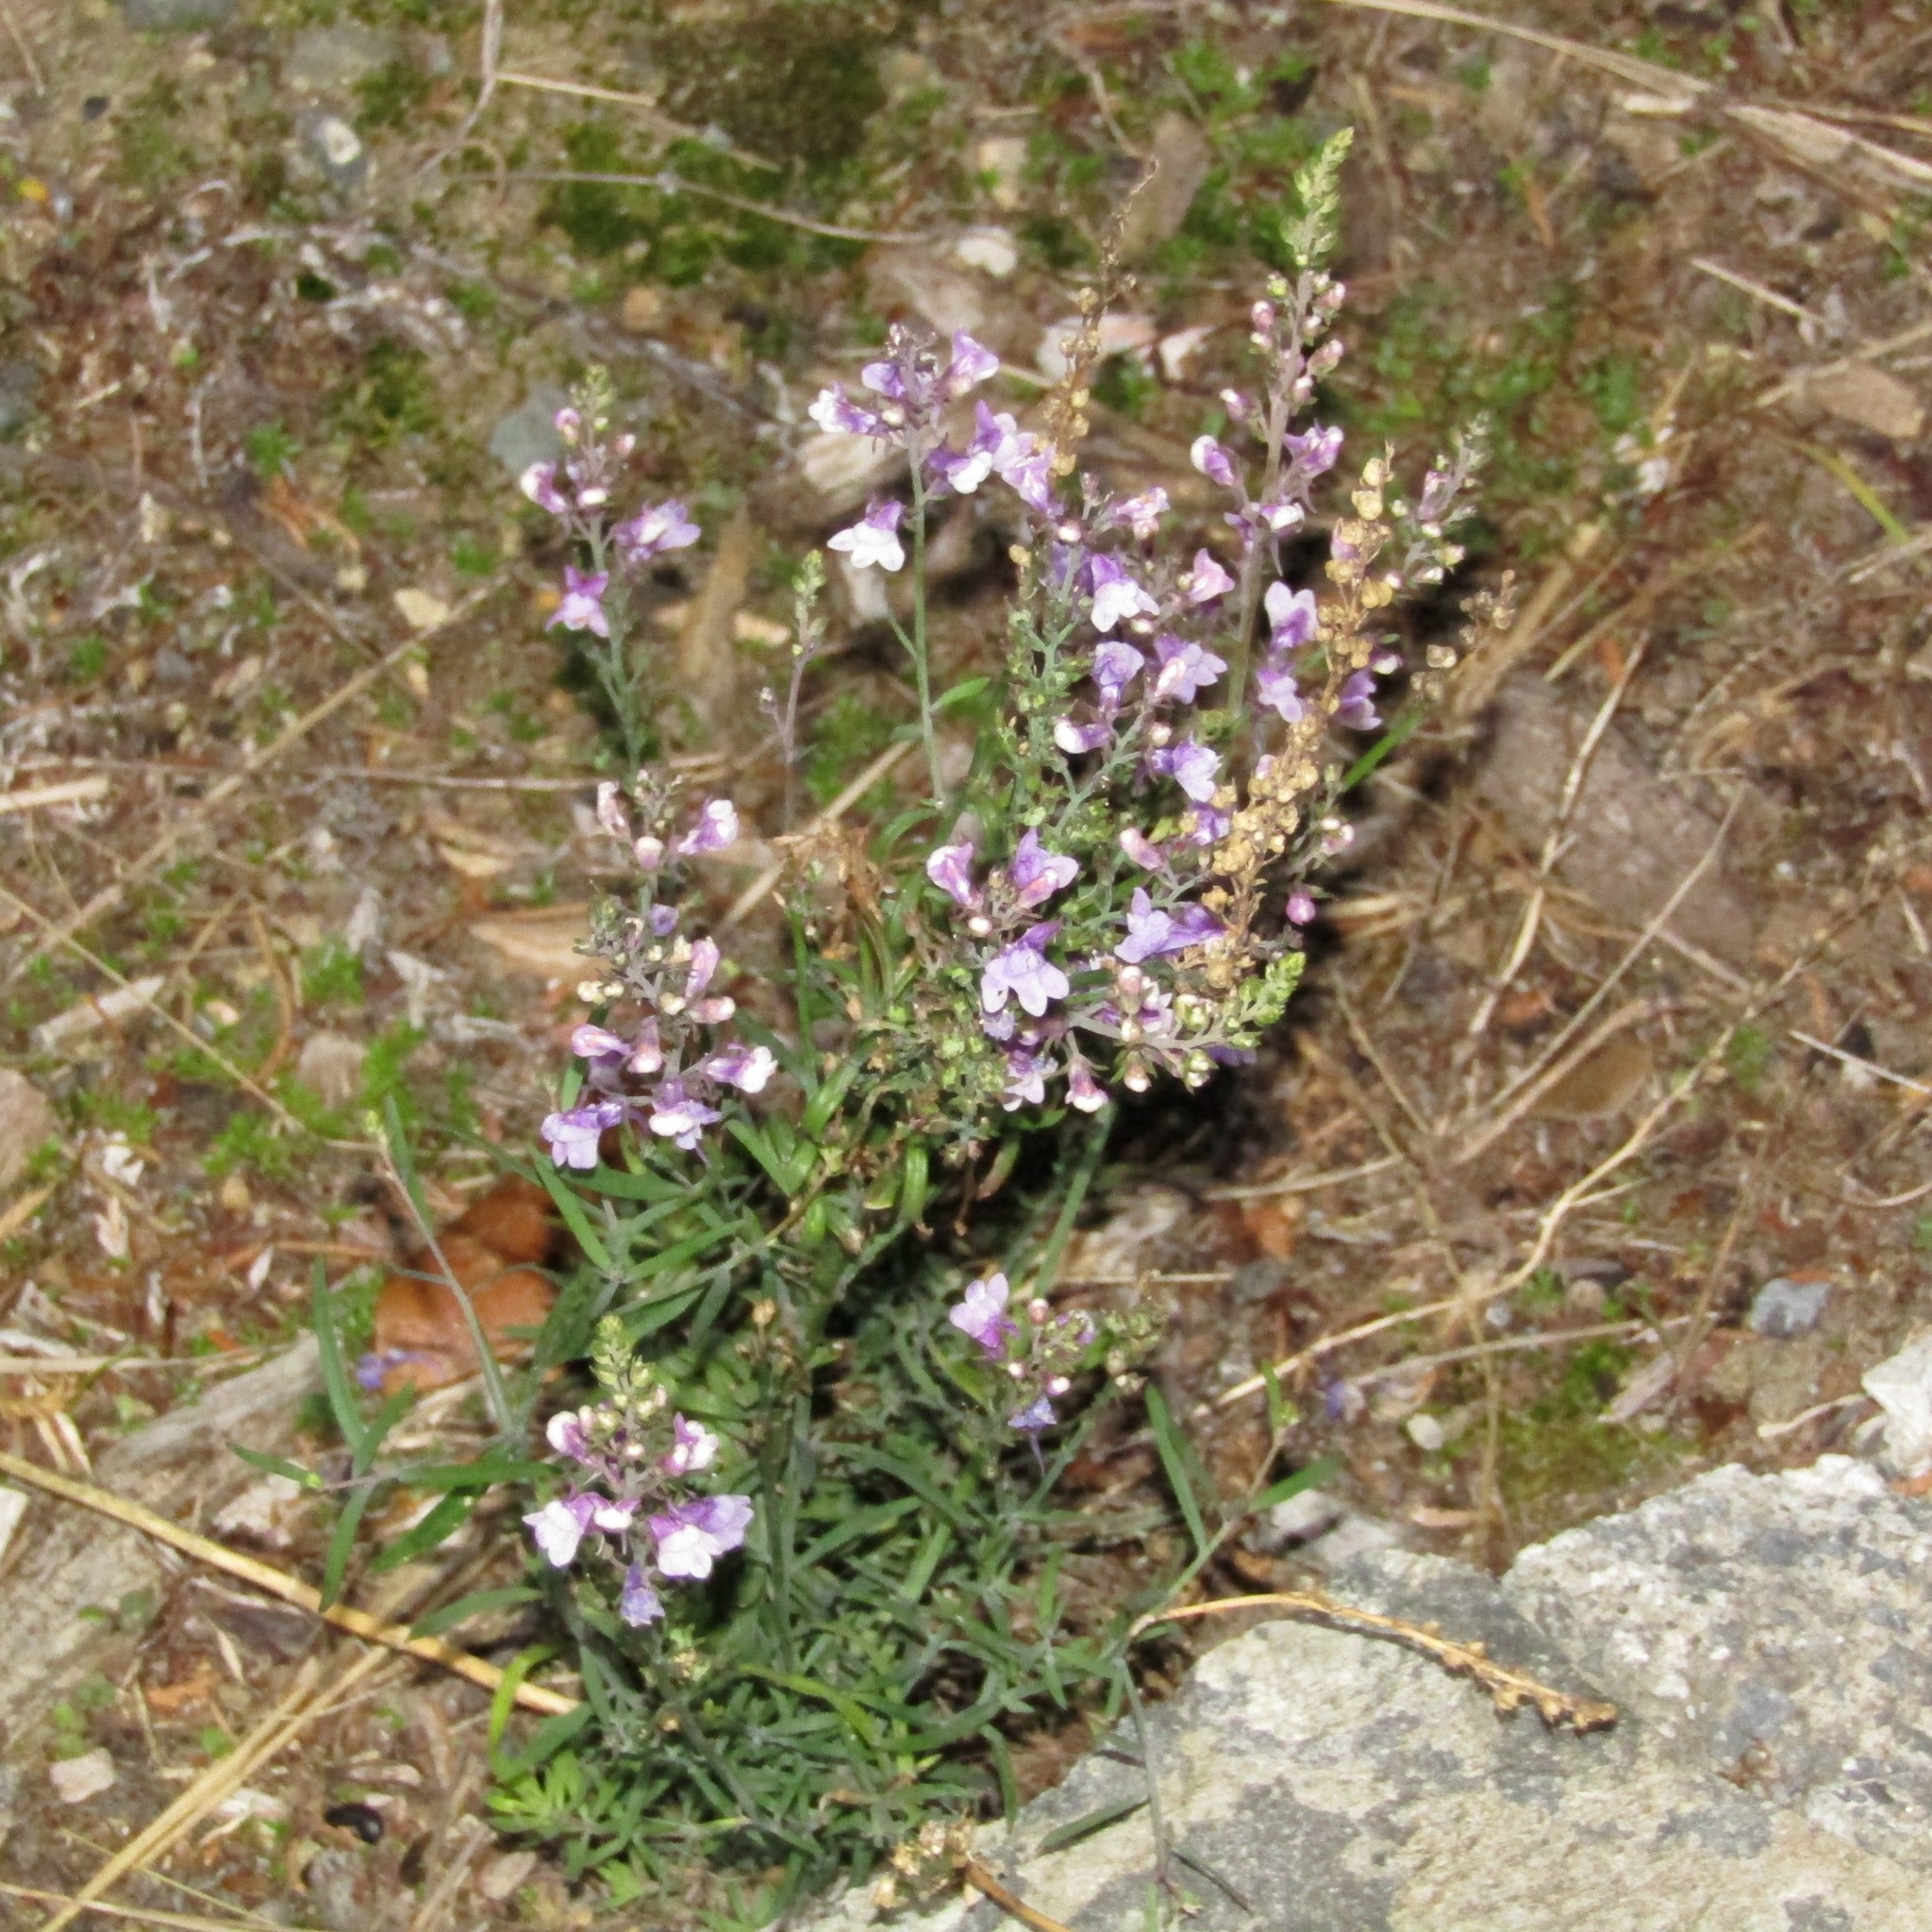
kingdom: Plantae
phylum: Tracheophyta
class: Magnoliopsida
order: Lamiales
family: Plantaginaceae
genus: Linaria
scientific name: Linaria purpurea
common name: Purple toadflax
